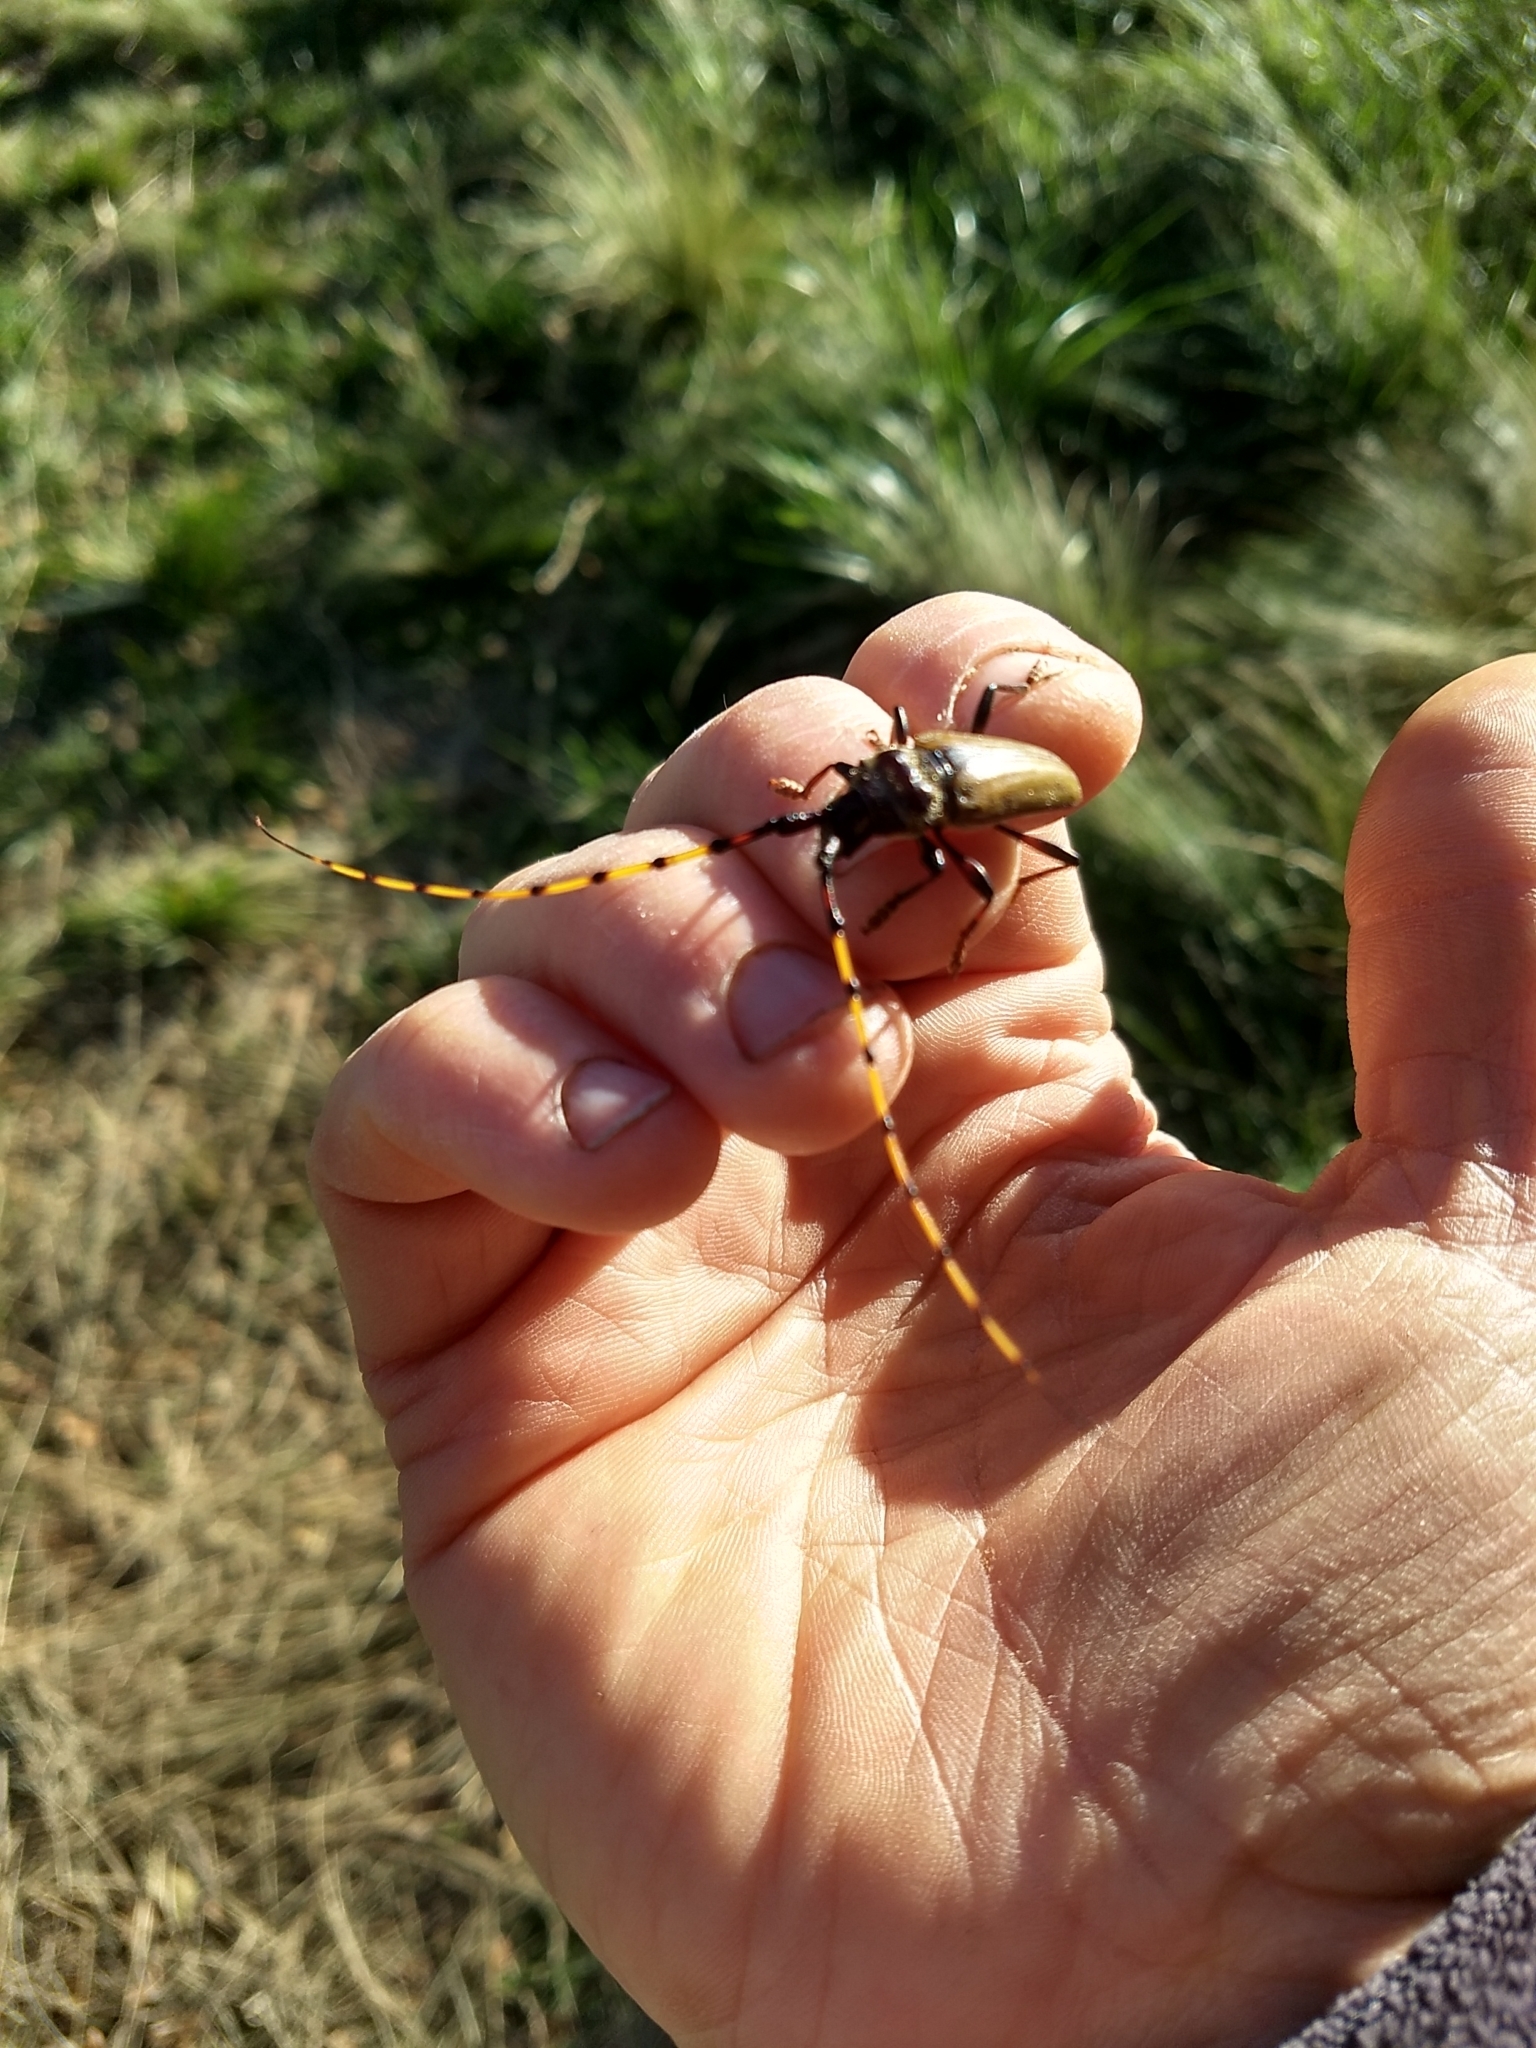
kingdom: Animalia
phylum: Arthropoda
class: Insecta
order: Coleoptera
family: Cerambycidae
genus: Retrachydes
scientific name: Retrachydes thoracicus
